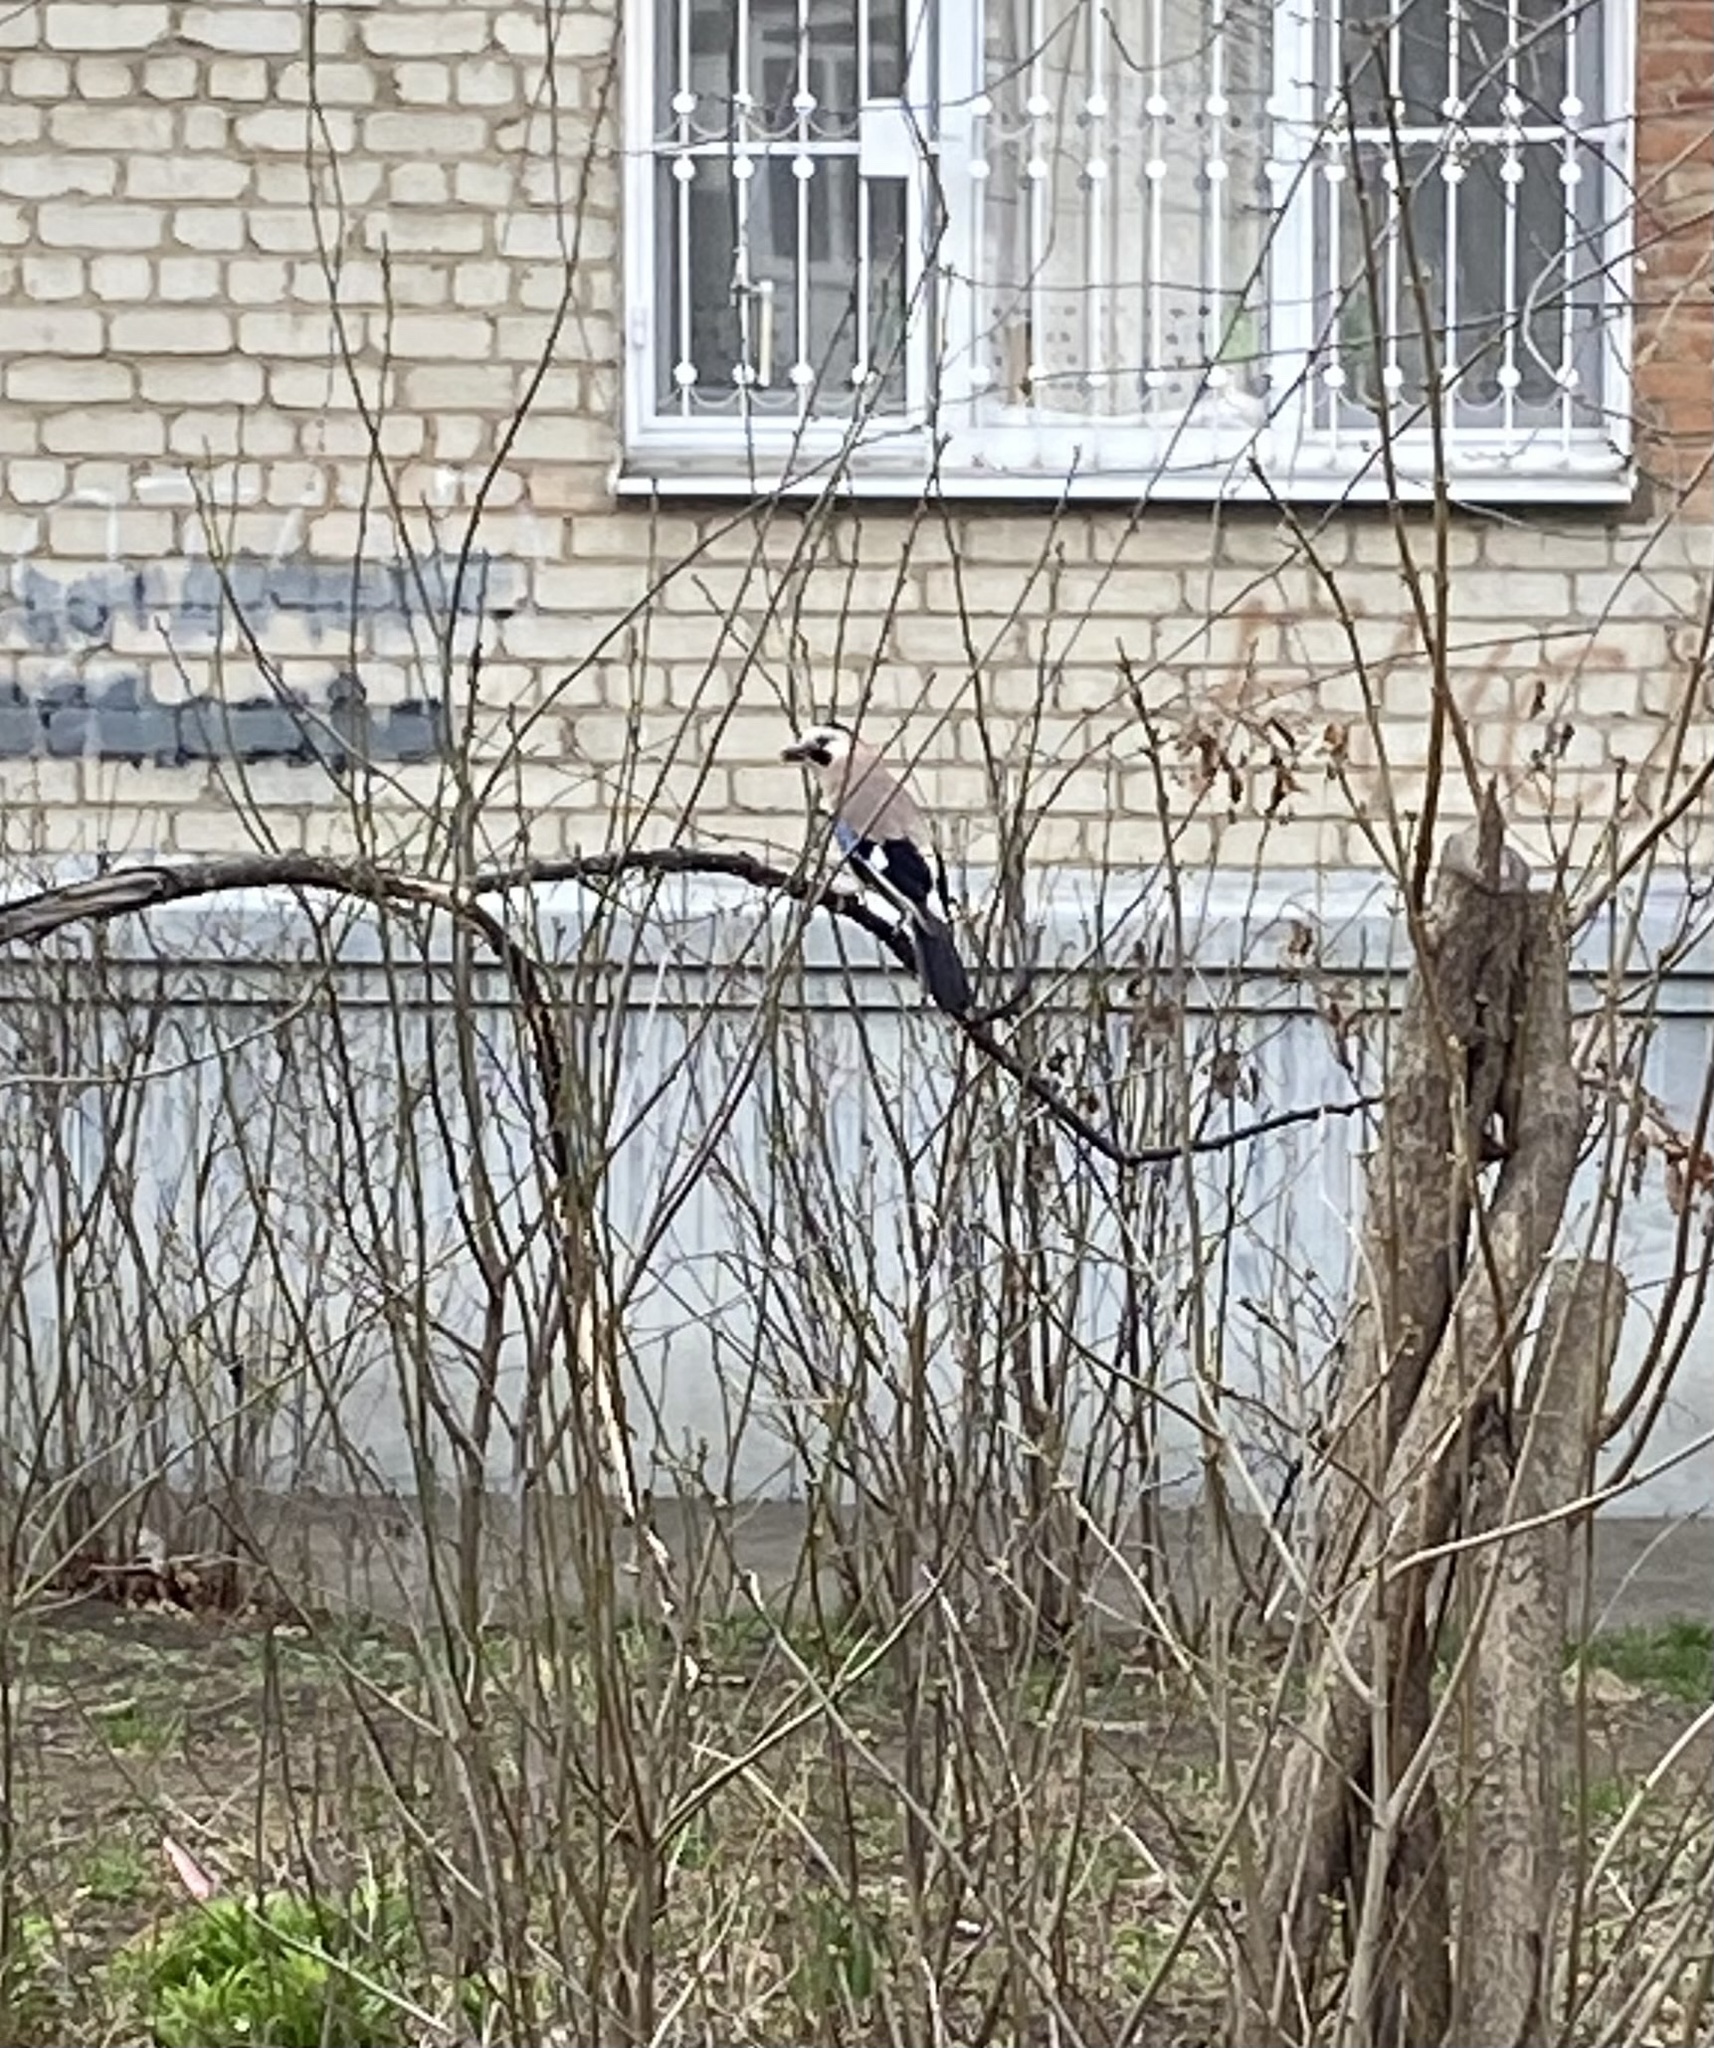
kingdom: Animalia
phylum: Chordata
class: Aves
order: Passeriformes
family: Corvidae
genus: Garrulus
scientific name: Garrulus glandarius
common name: Eurasian jay
